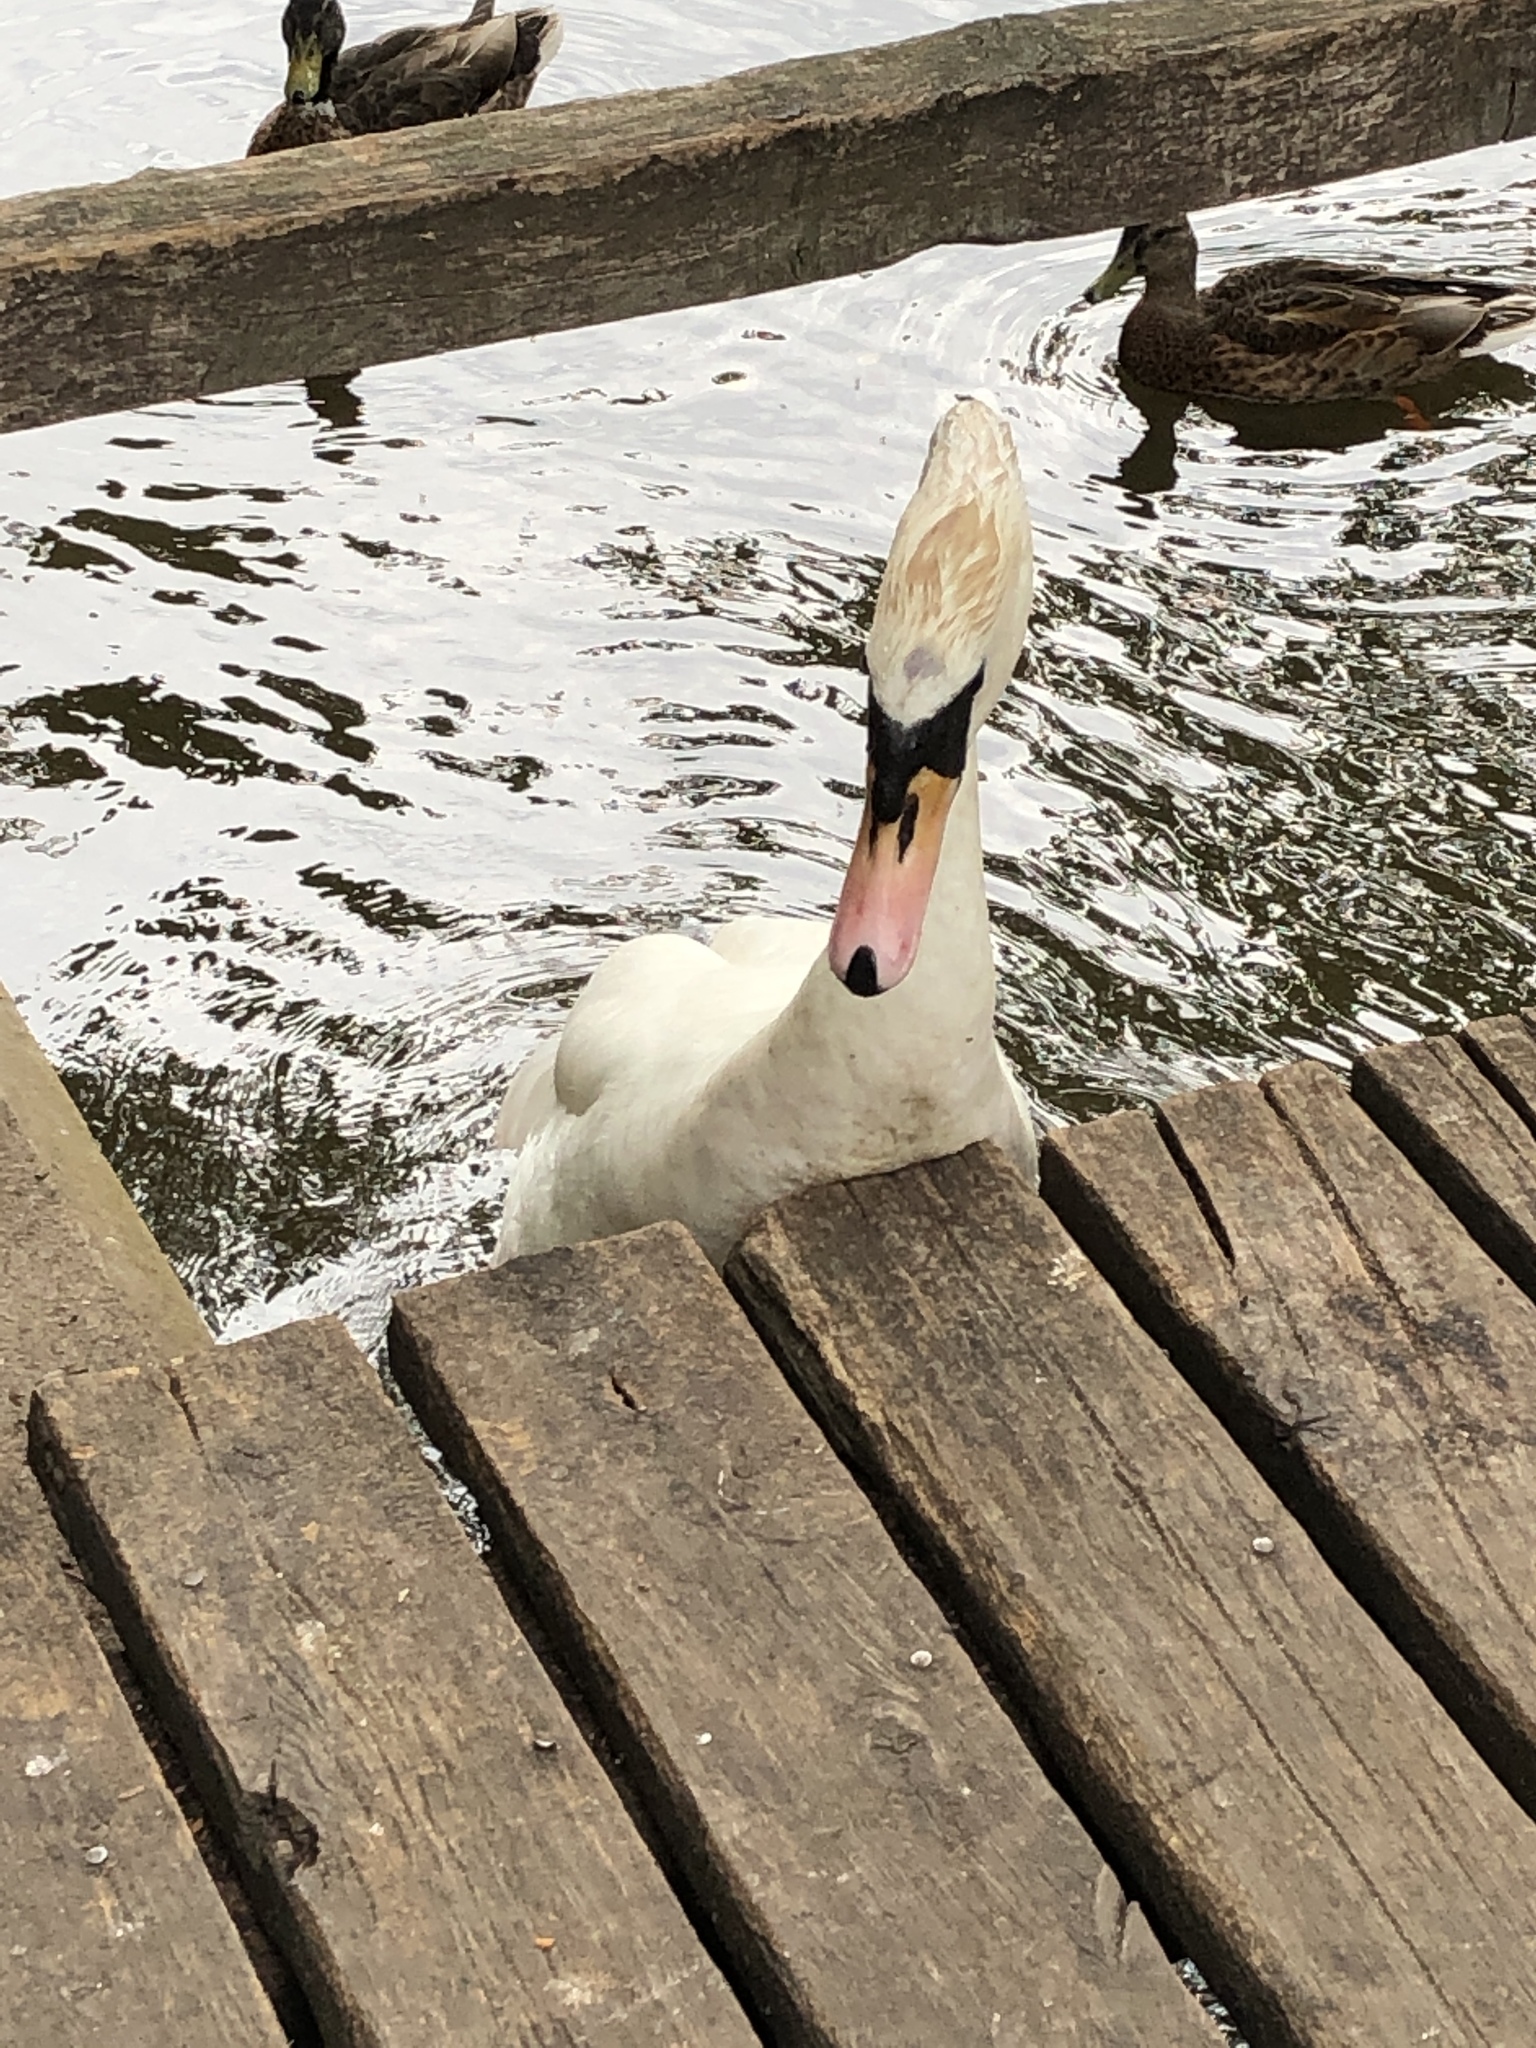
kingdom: Animalia
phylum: Chordata
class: Aves
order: Anseriformes
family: Anatidae
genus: Cygnus
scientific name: Cygnus olor
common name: Mute swan
